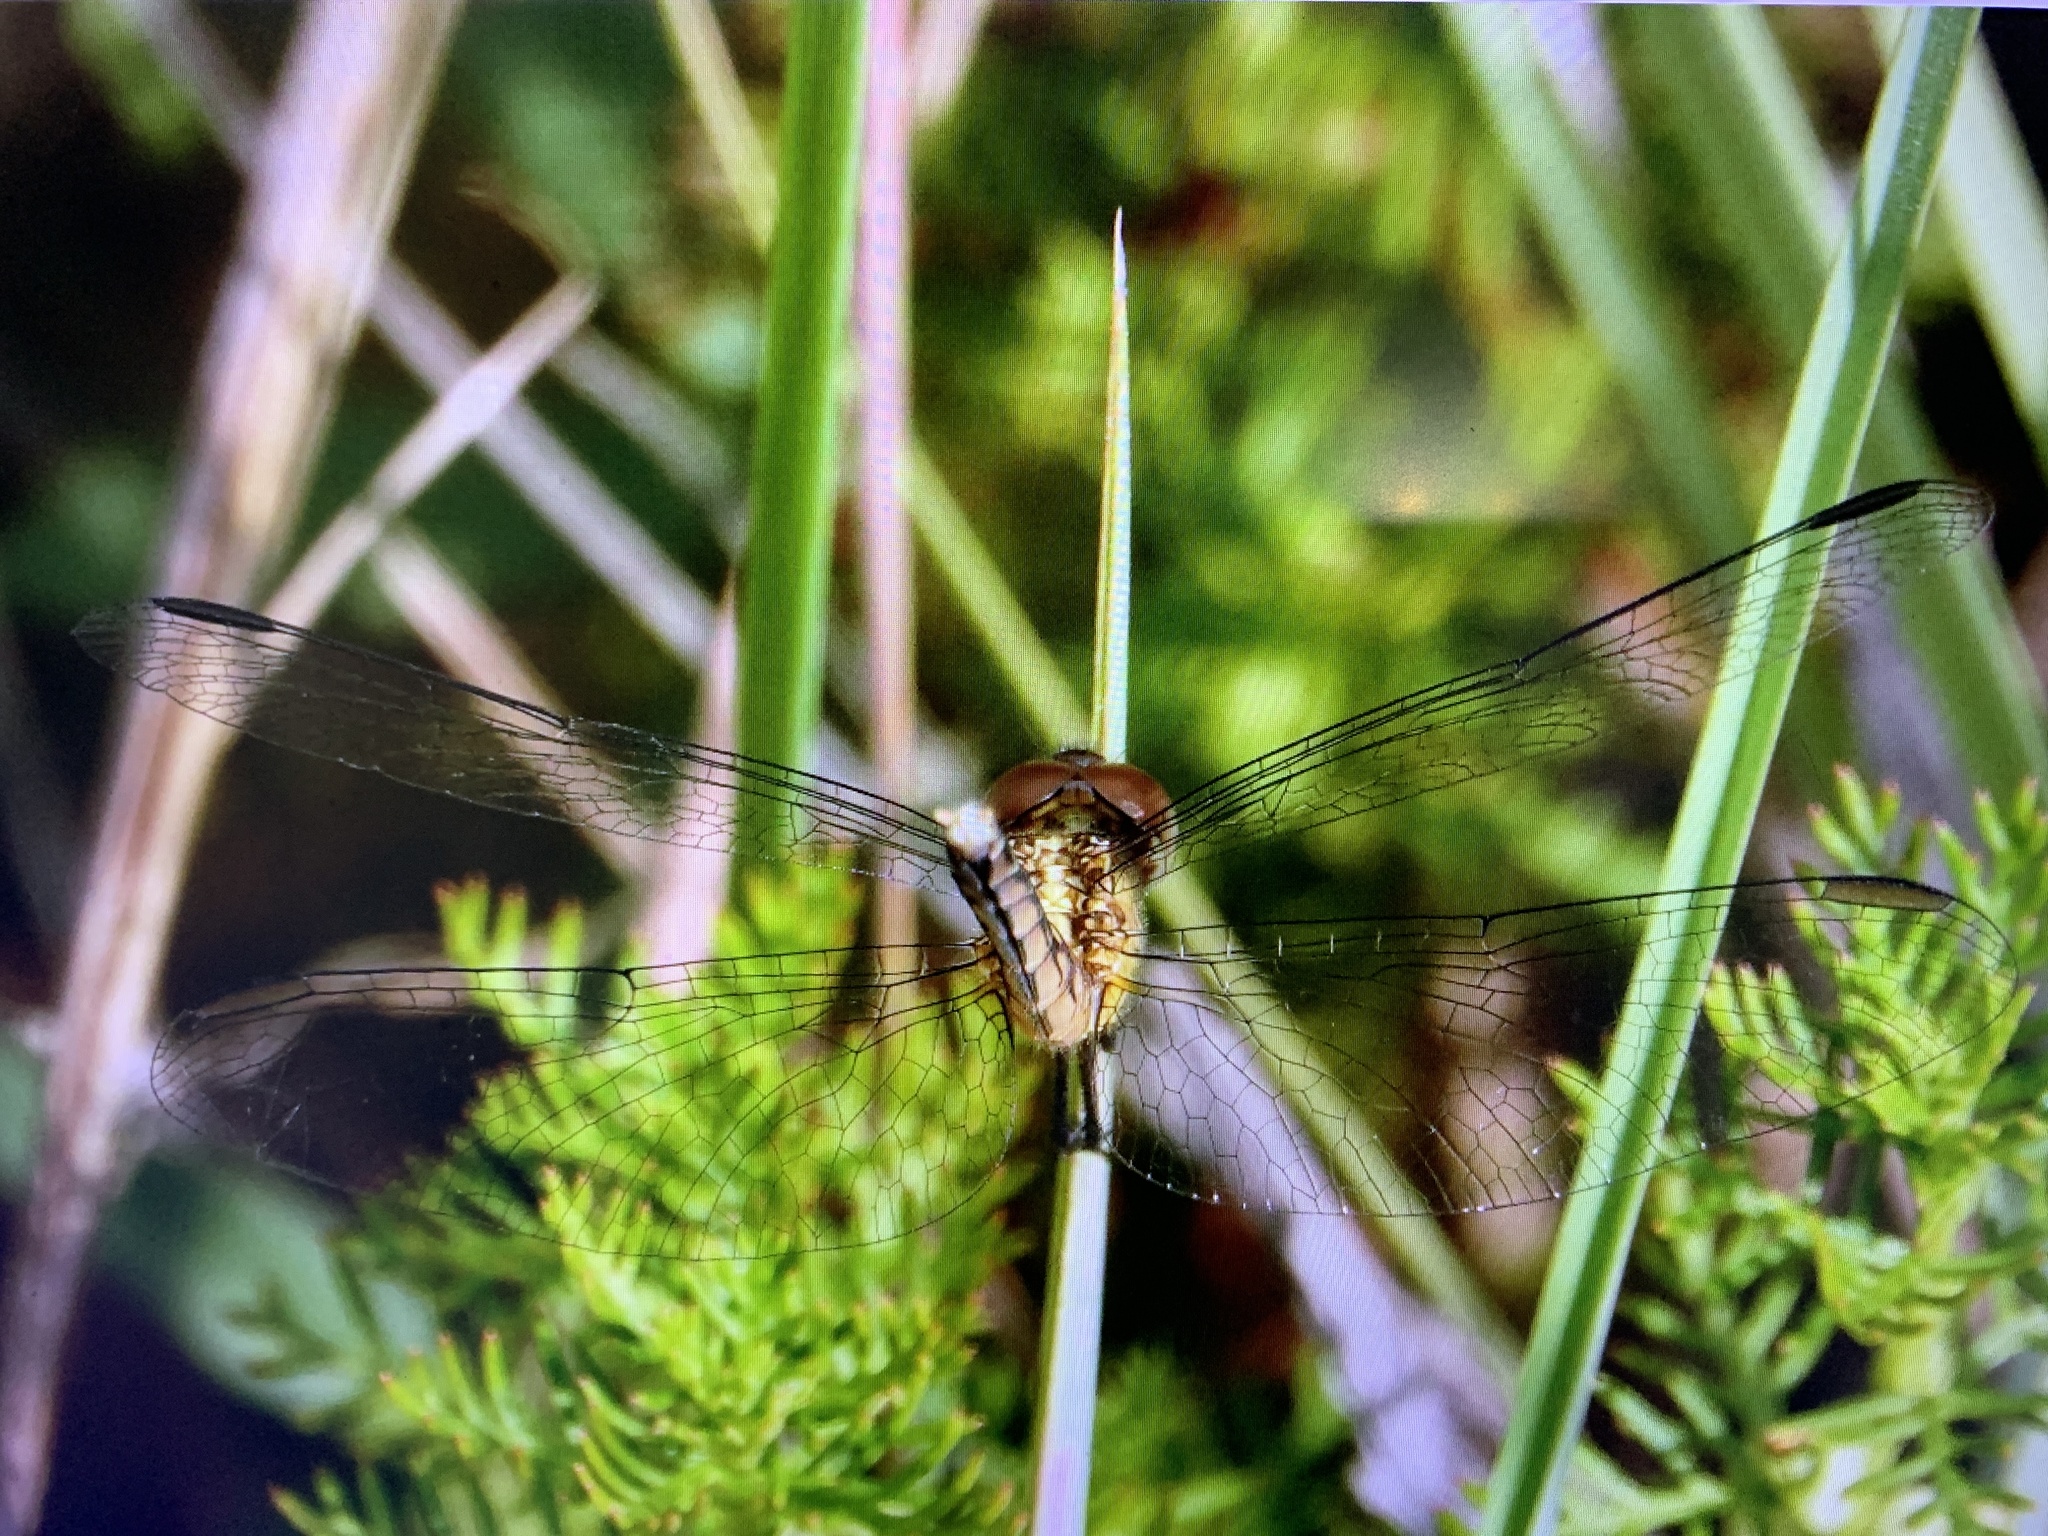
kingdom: Animalia
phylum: Arthropoda
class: Insecta
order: Odonata
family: Libellulidae
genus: Erythrodiplax
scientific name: Erythrodiplax minuscula
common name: Little blue dragonlet
